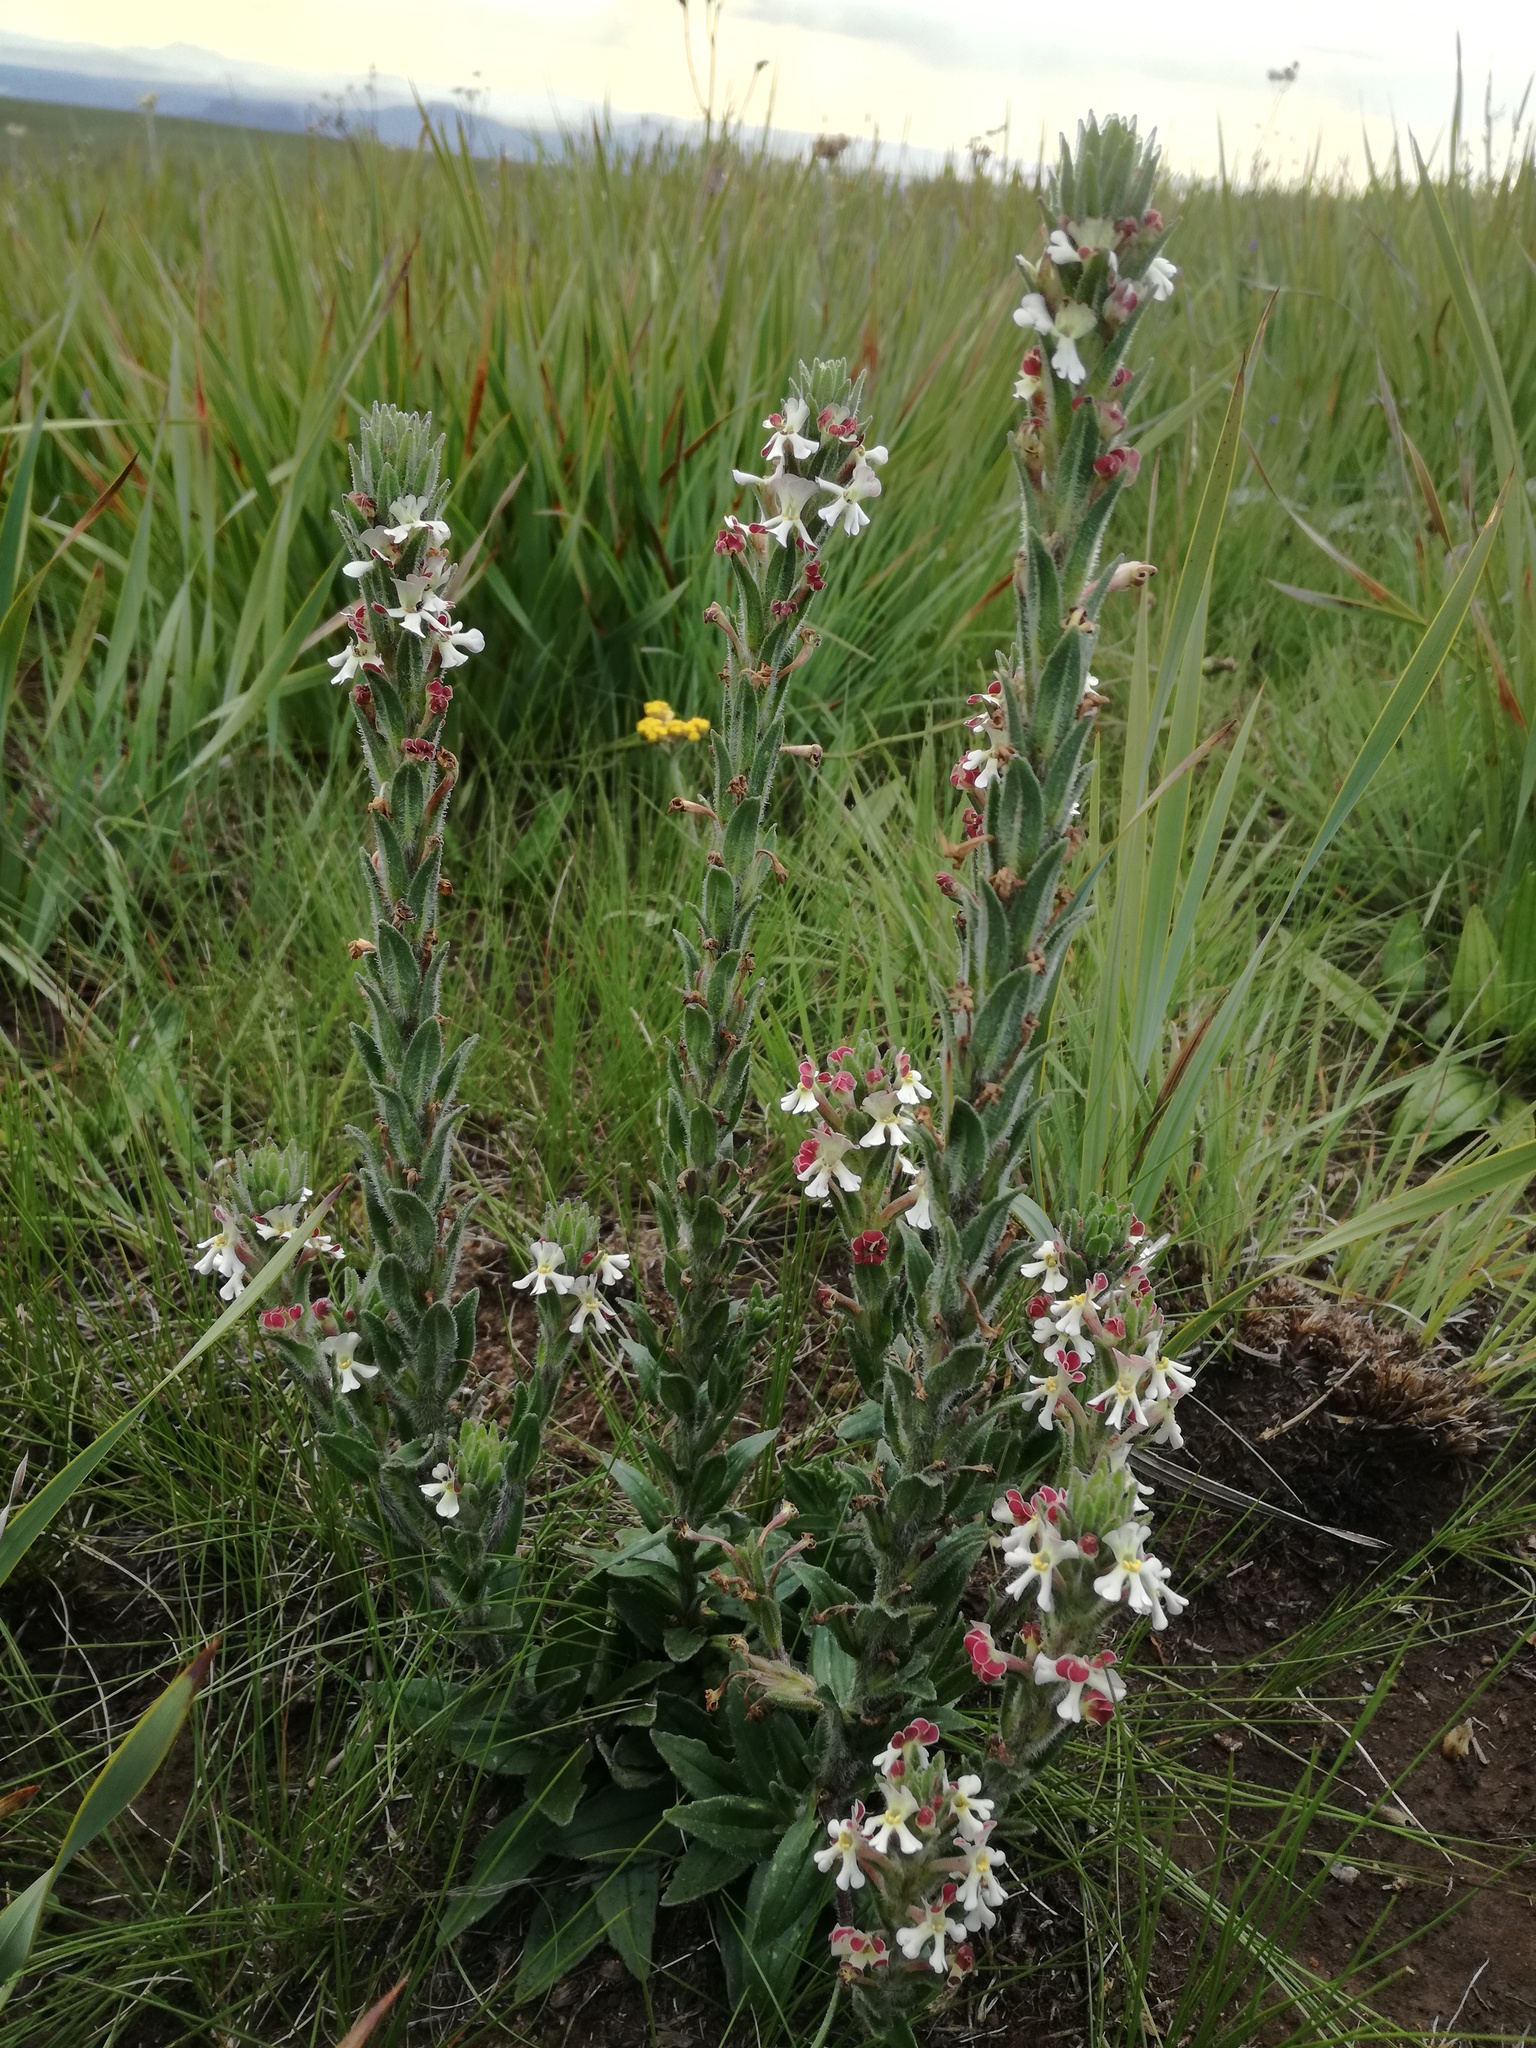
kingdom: Plantae
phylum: Tracheophyta
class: Magnoliopsida
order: Lamiales
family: Scrophulariaceae
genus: Zaluzianskya
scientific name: Zaluzianskya microsiphon
